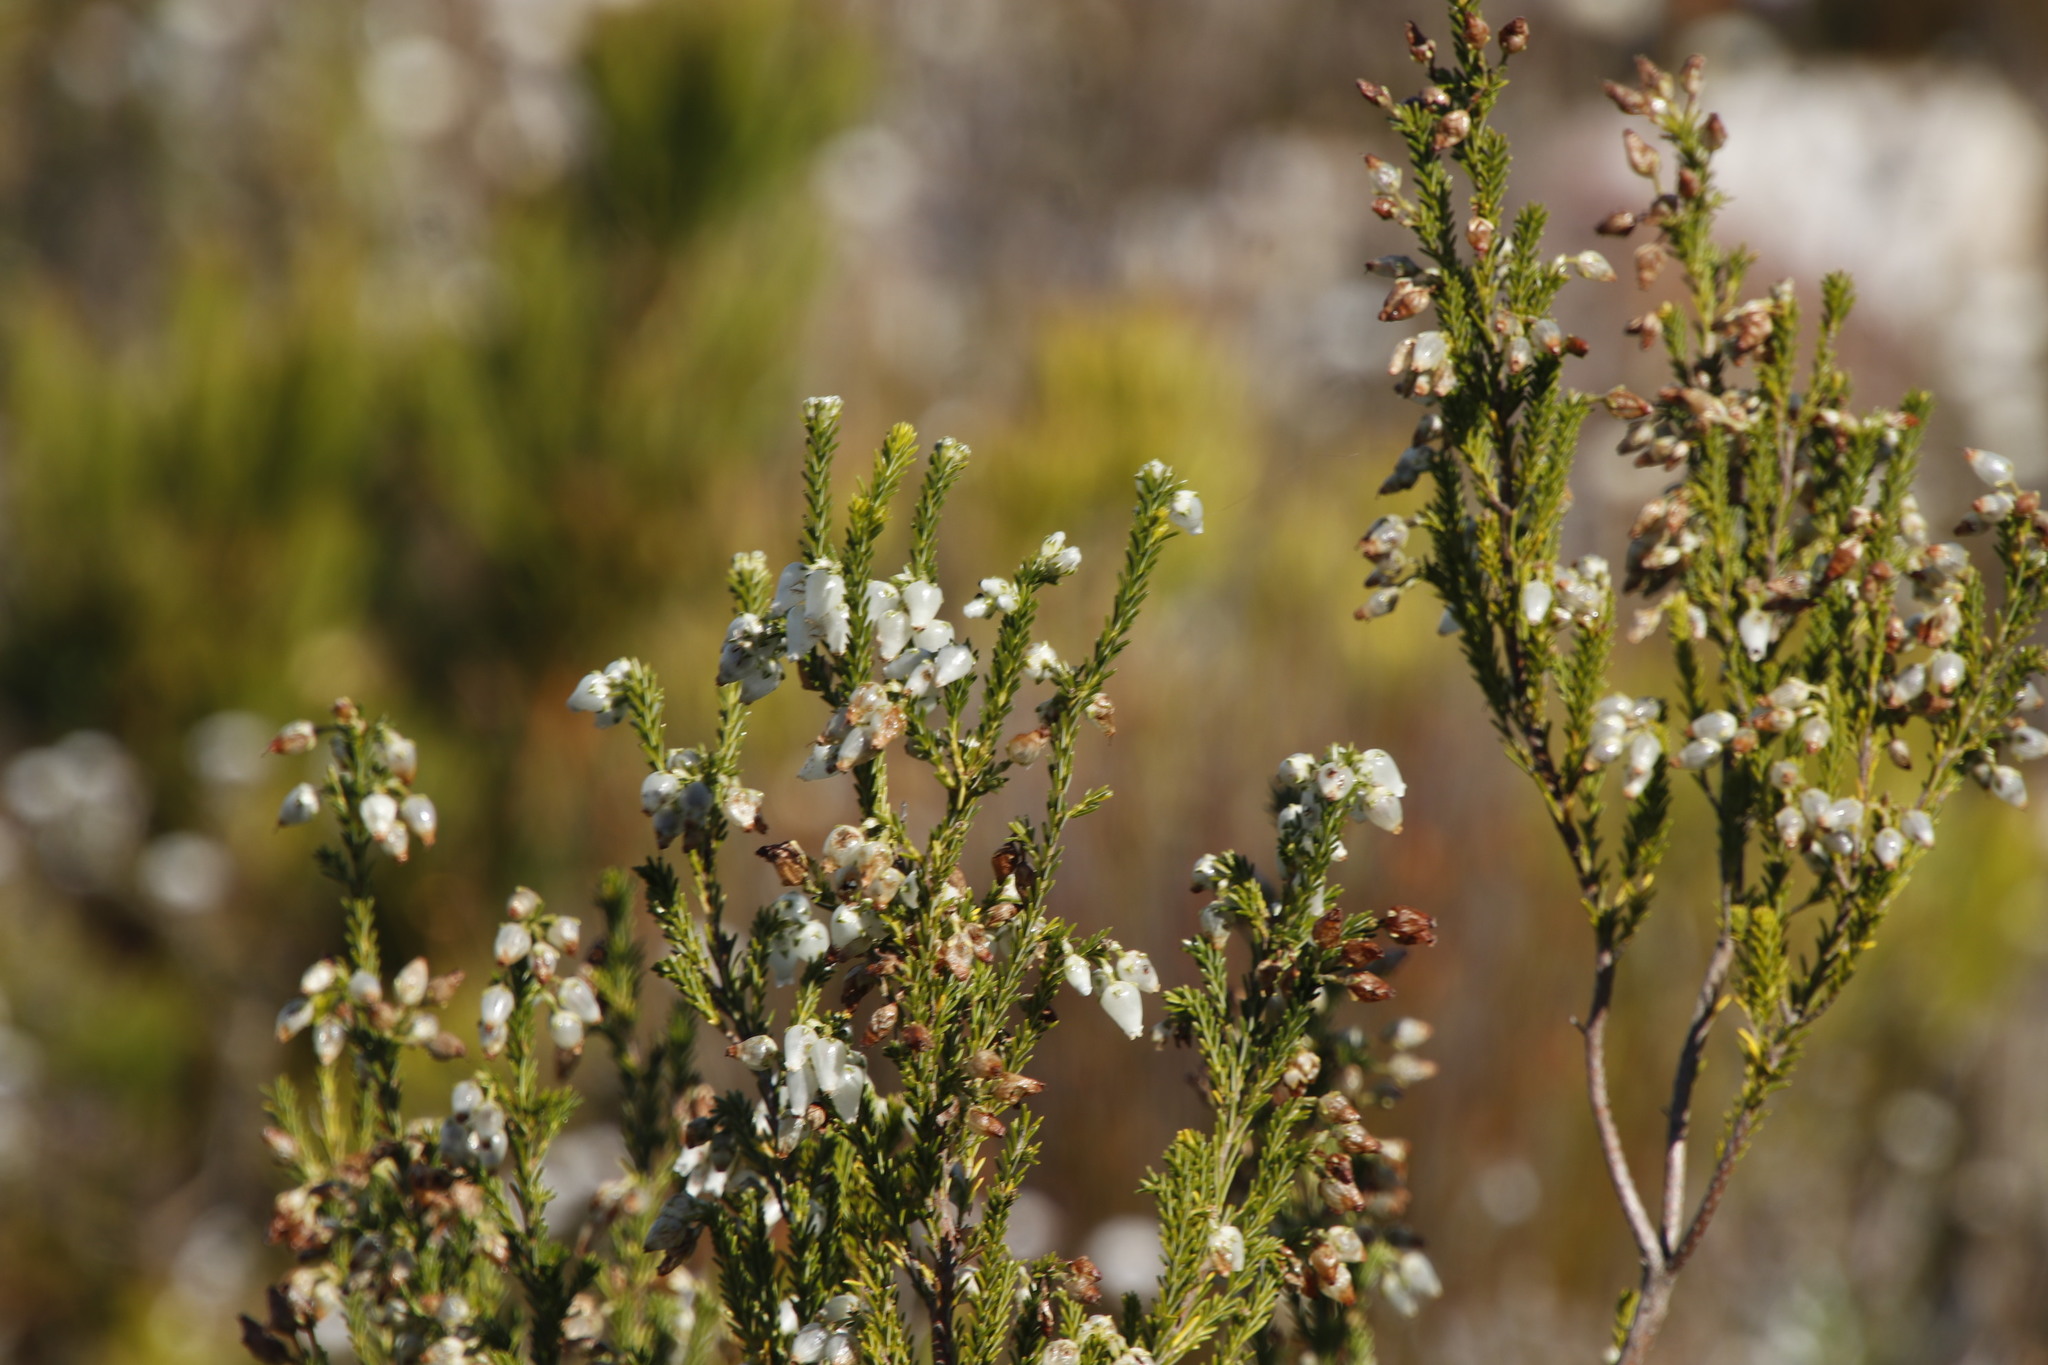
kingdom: Plantae
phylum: Tracheophyta
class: Magnoliopsida
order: Ericales
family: Ericaceae
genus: Erica
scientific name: Erica physodes
